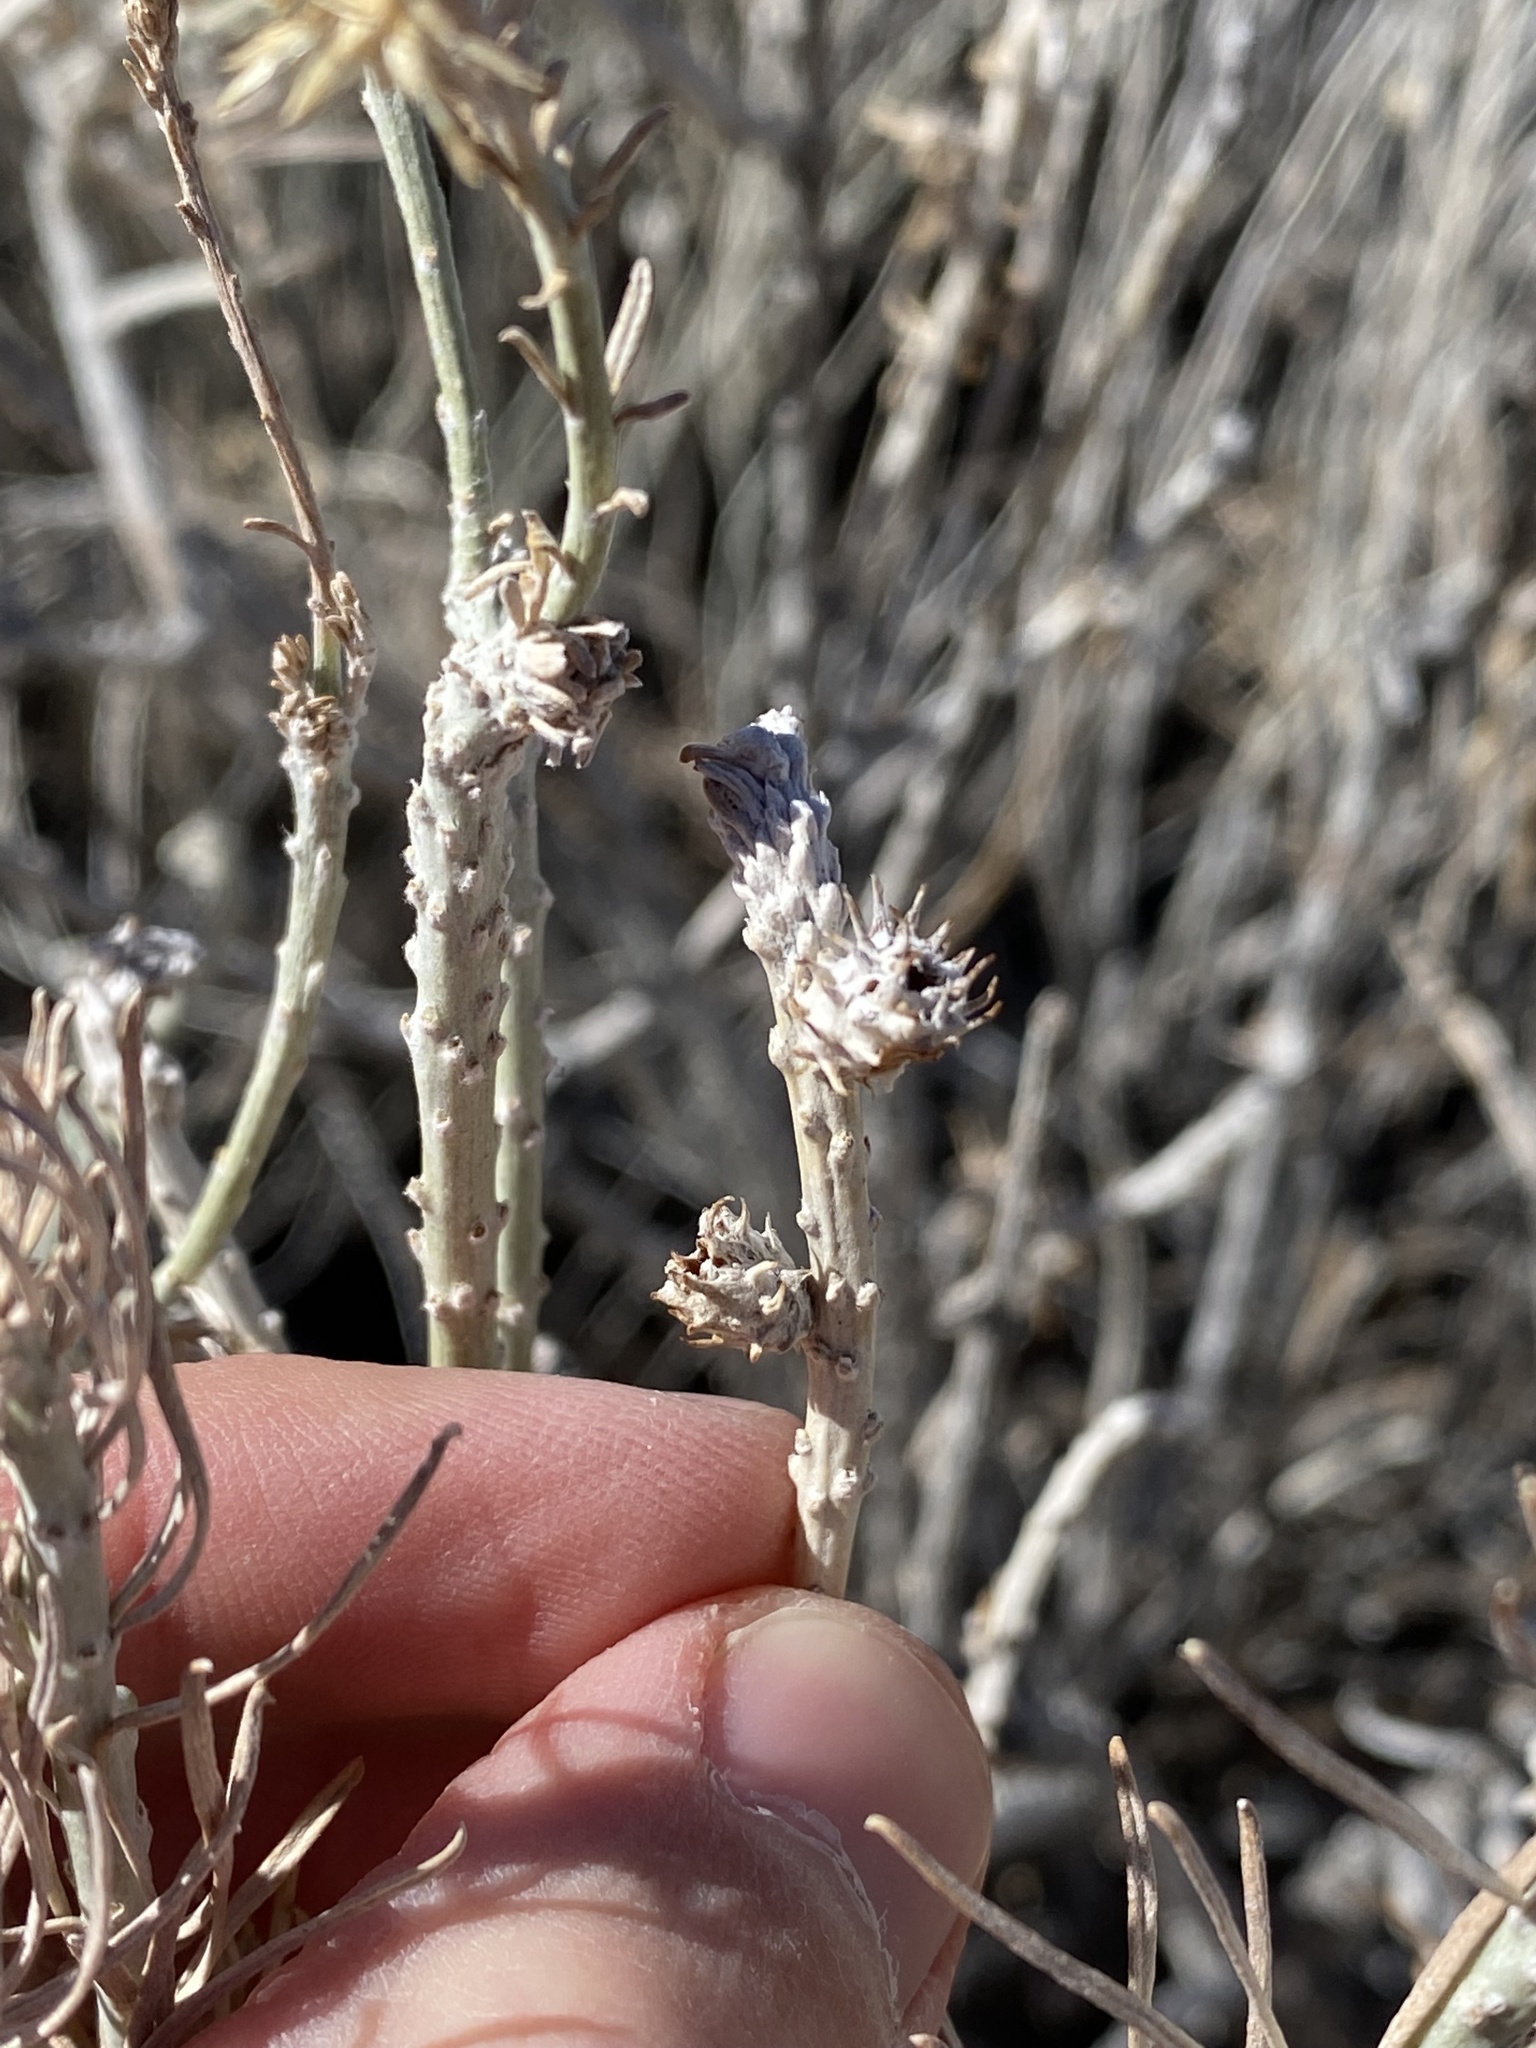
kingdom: Animalia
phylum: Arthropoda
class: Insecta
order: Diptera
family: Cecidomyiidae
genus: Rhopalomyia
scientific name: Rhopalomyia utahensis
